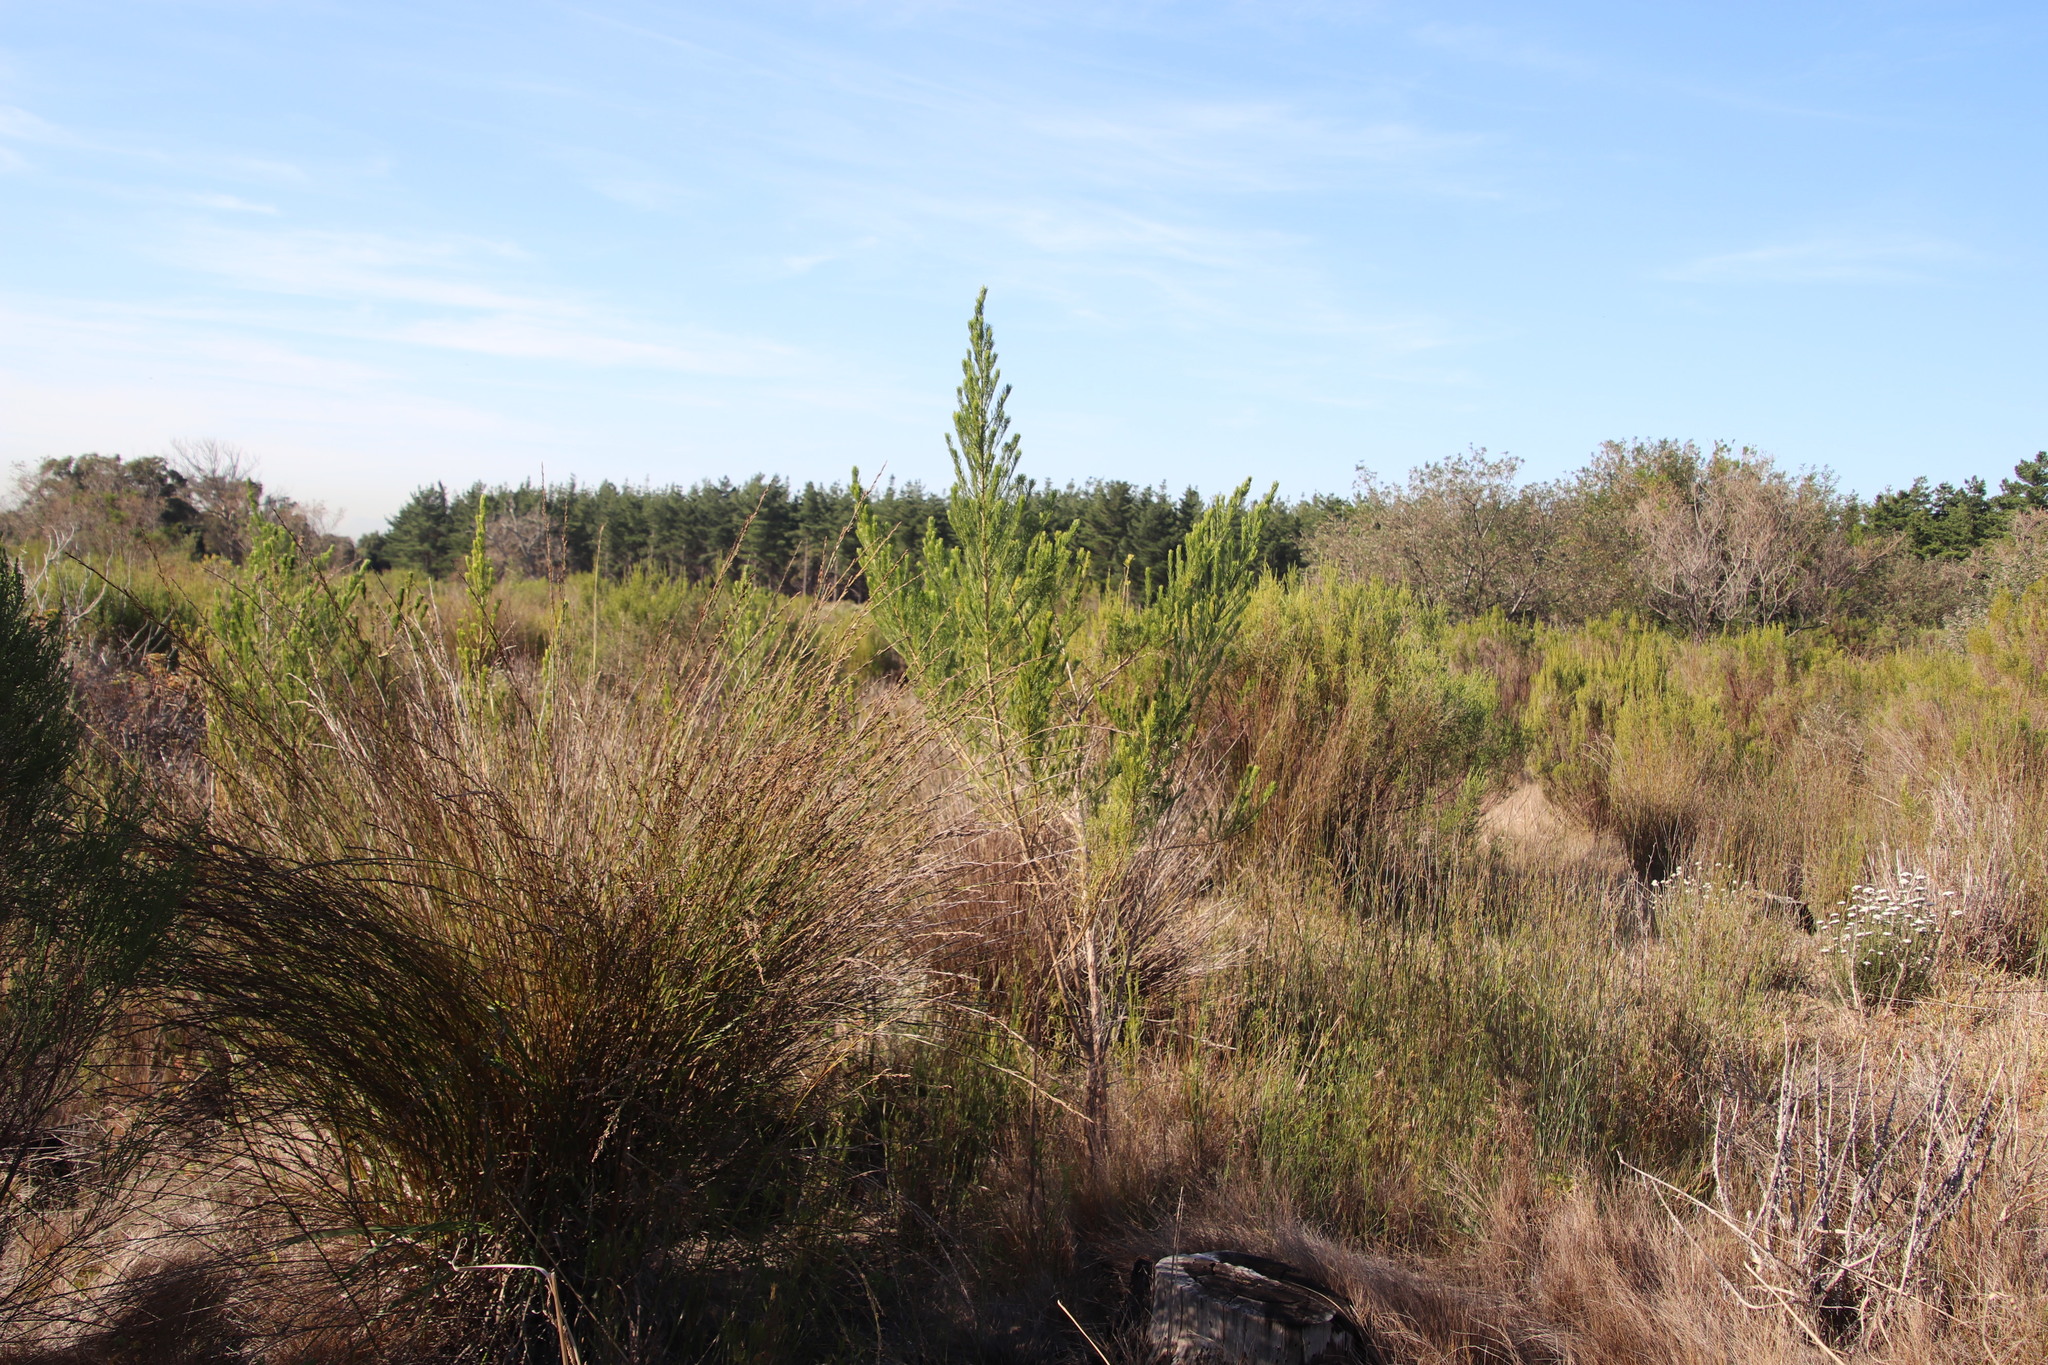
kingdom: Plantae
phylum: Tracheophyta
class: Magnoliopsida
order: Fabales
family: Fabaceae
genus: Psoralea
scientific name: Psoralea pinnata
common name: African scurfpea
